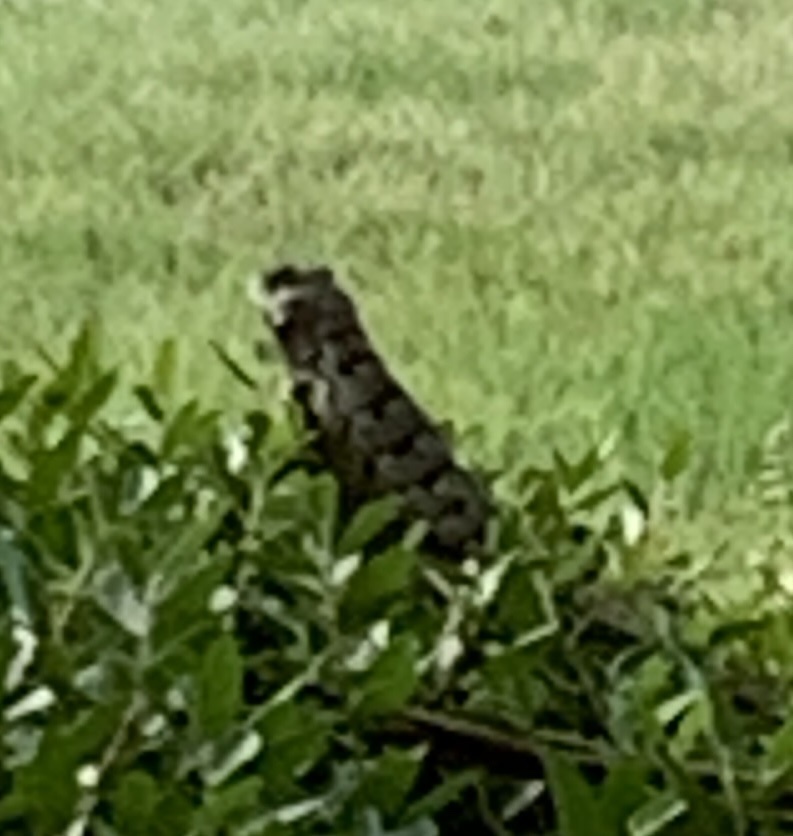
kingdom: Animalia
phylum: Chordata
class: Squamata
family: Phrynosomatidae
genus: Sceloporus
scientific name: Sceloporus olivaceus
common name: Texas spiny lizard
